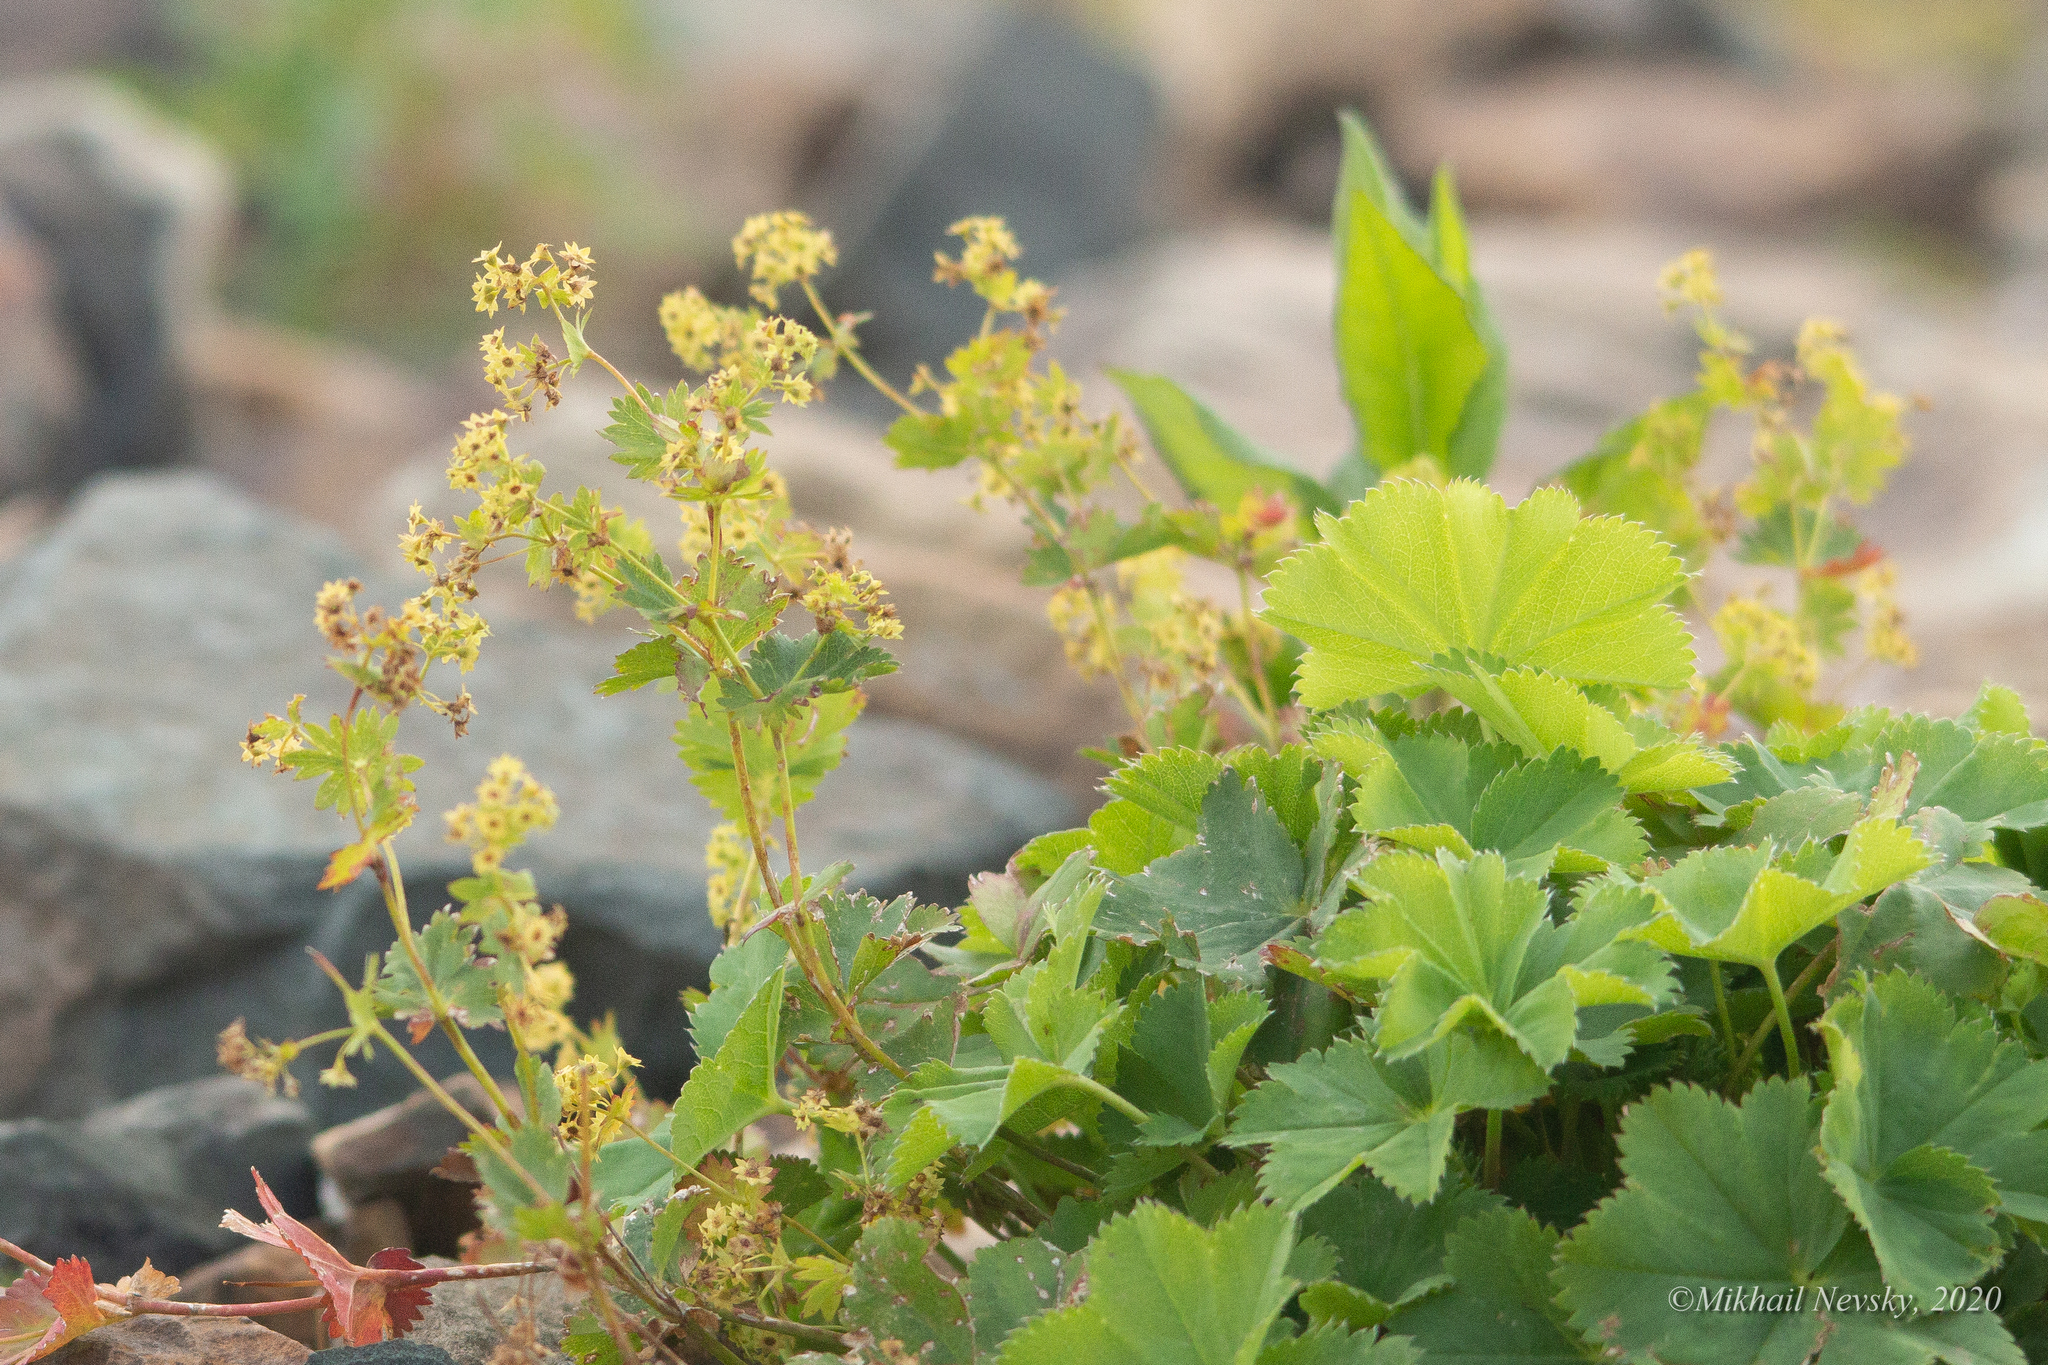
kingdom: Plantae
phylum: Tracheophyta
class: Magnoliopsida
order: Rosales
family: Rosaceae
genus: Alchemilla
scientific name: Alchemilla
